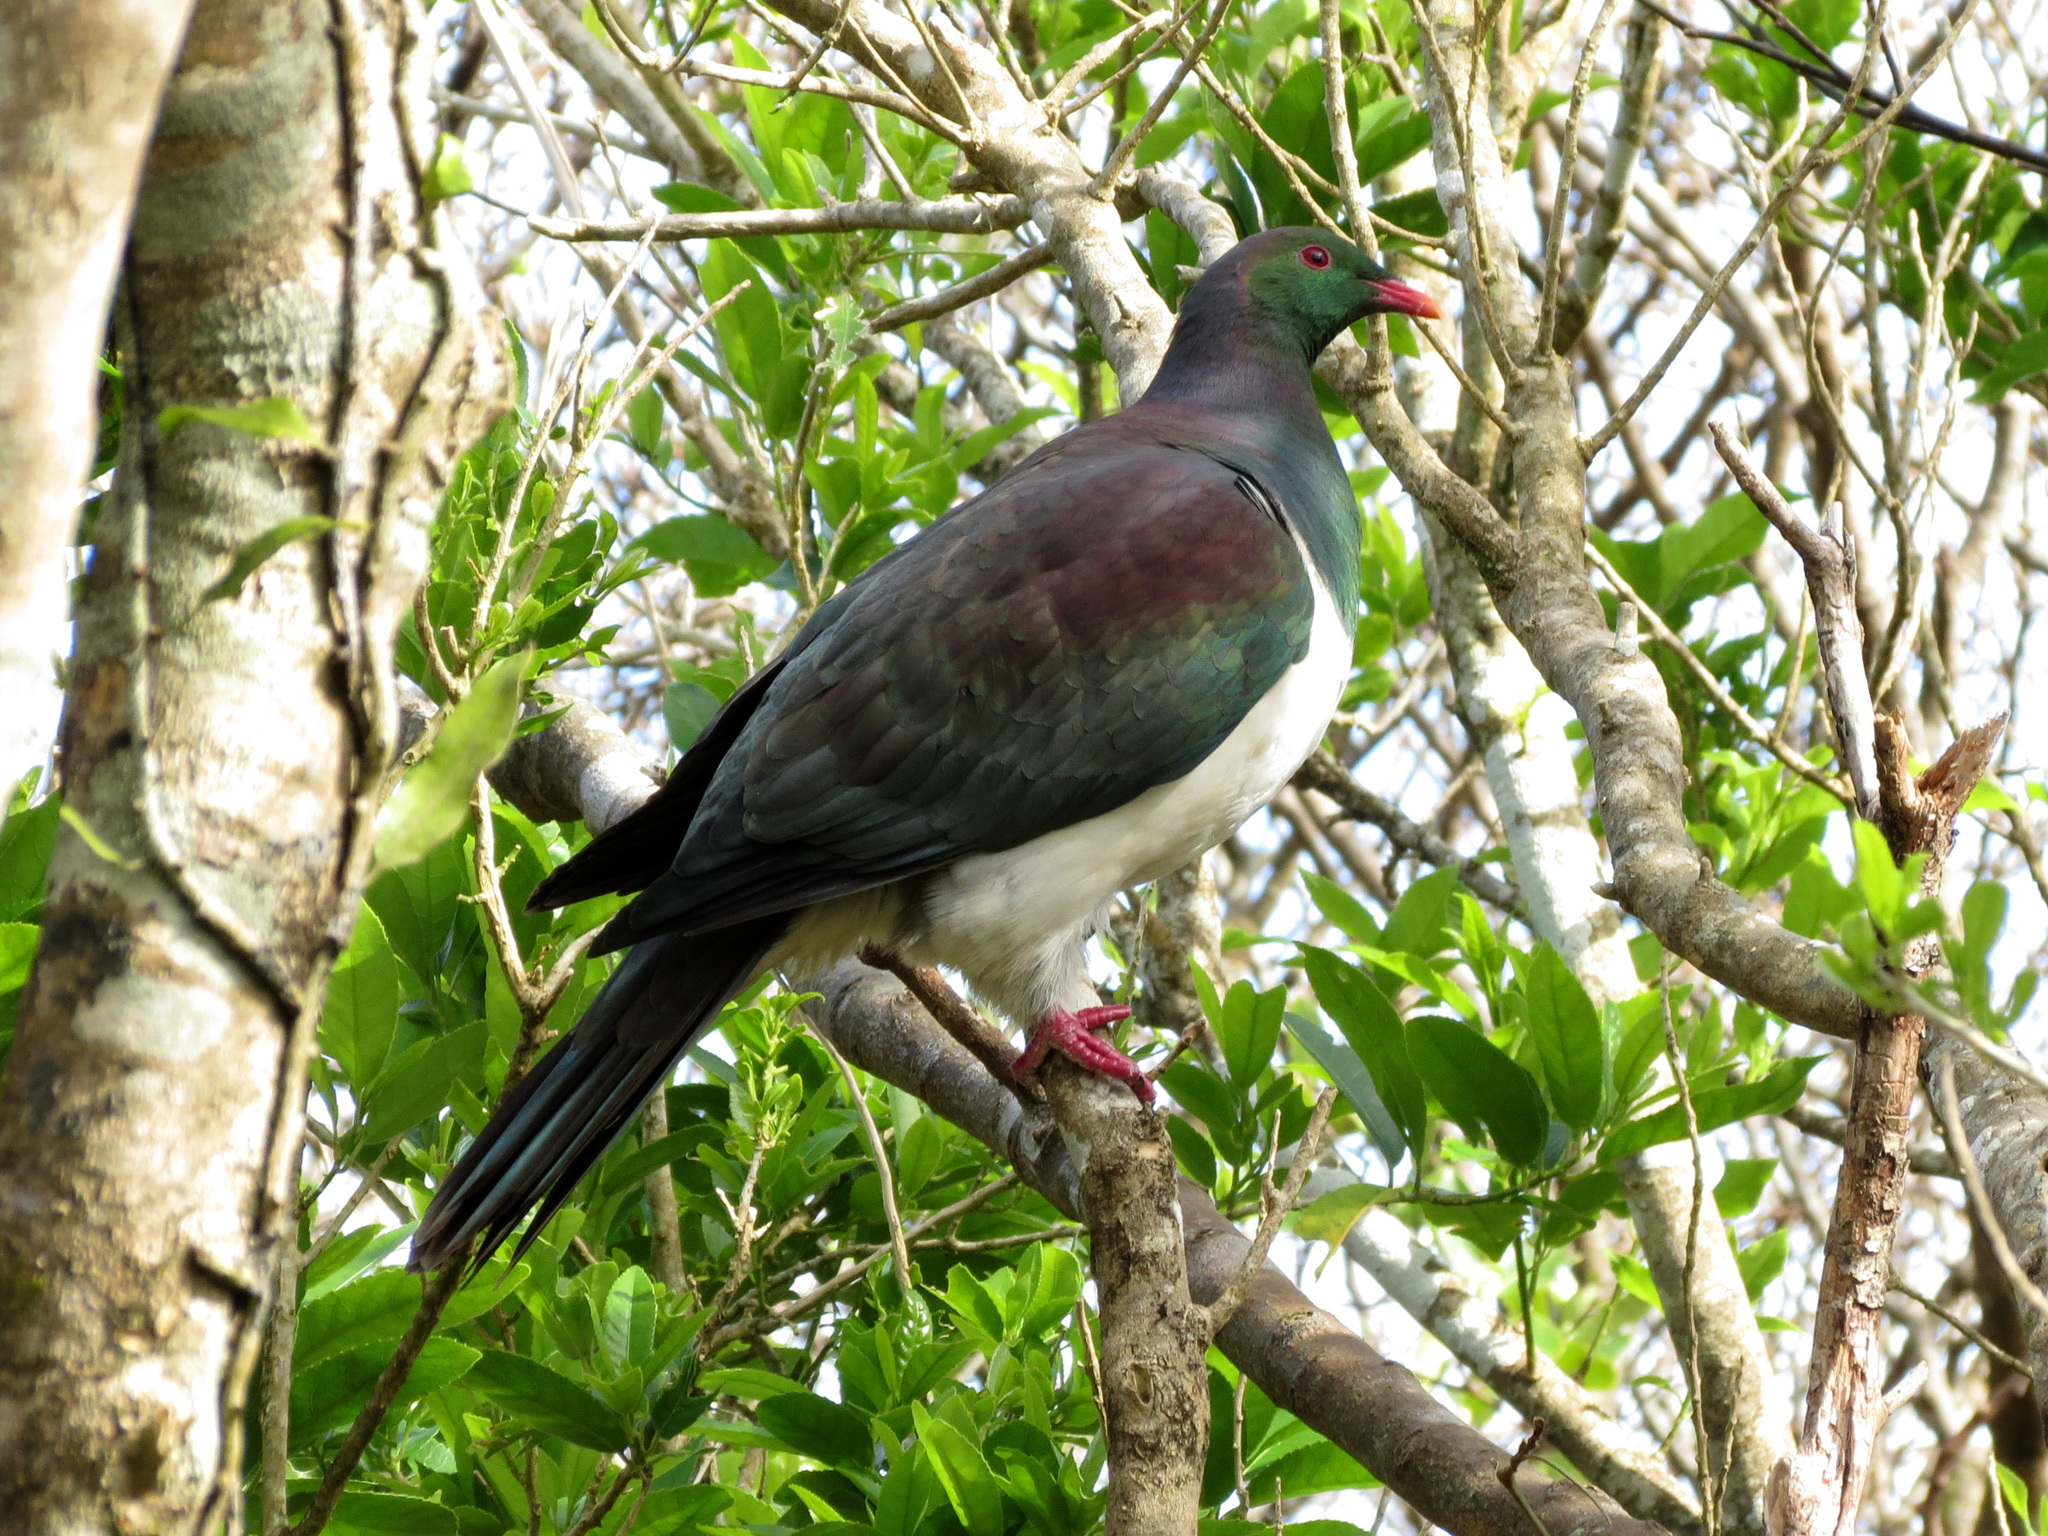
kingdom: Animalia
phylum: Chordata
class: Aves
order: Columbiformes
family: Columbidae
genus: Hemiphaga
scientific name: Hemiphaga novaeseelandiae
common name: New zealand pigeon
